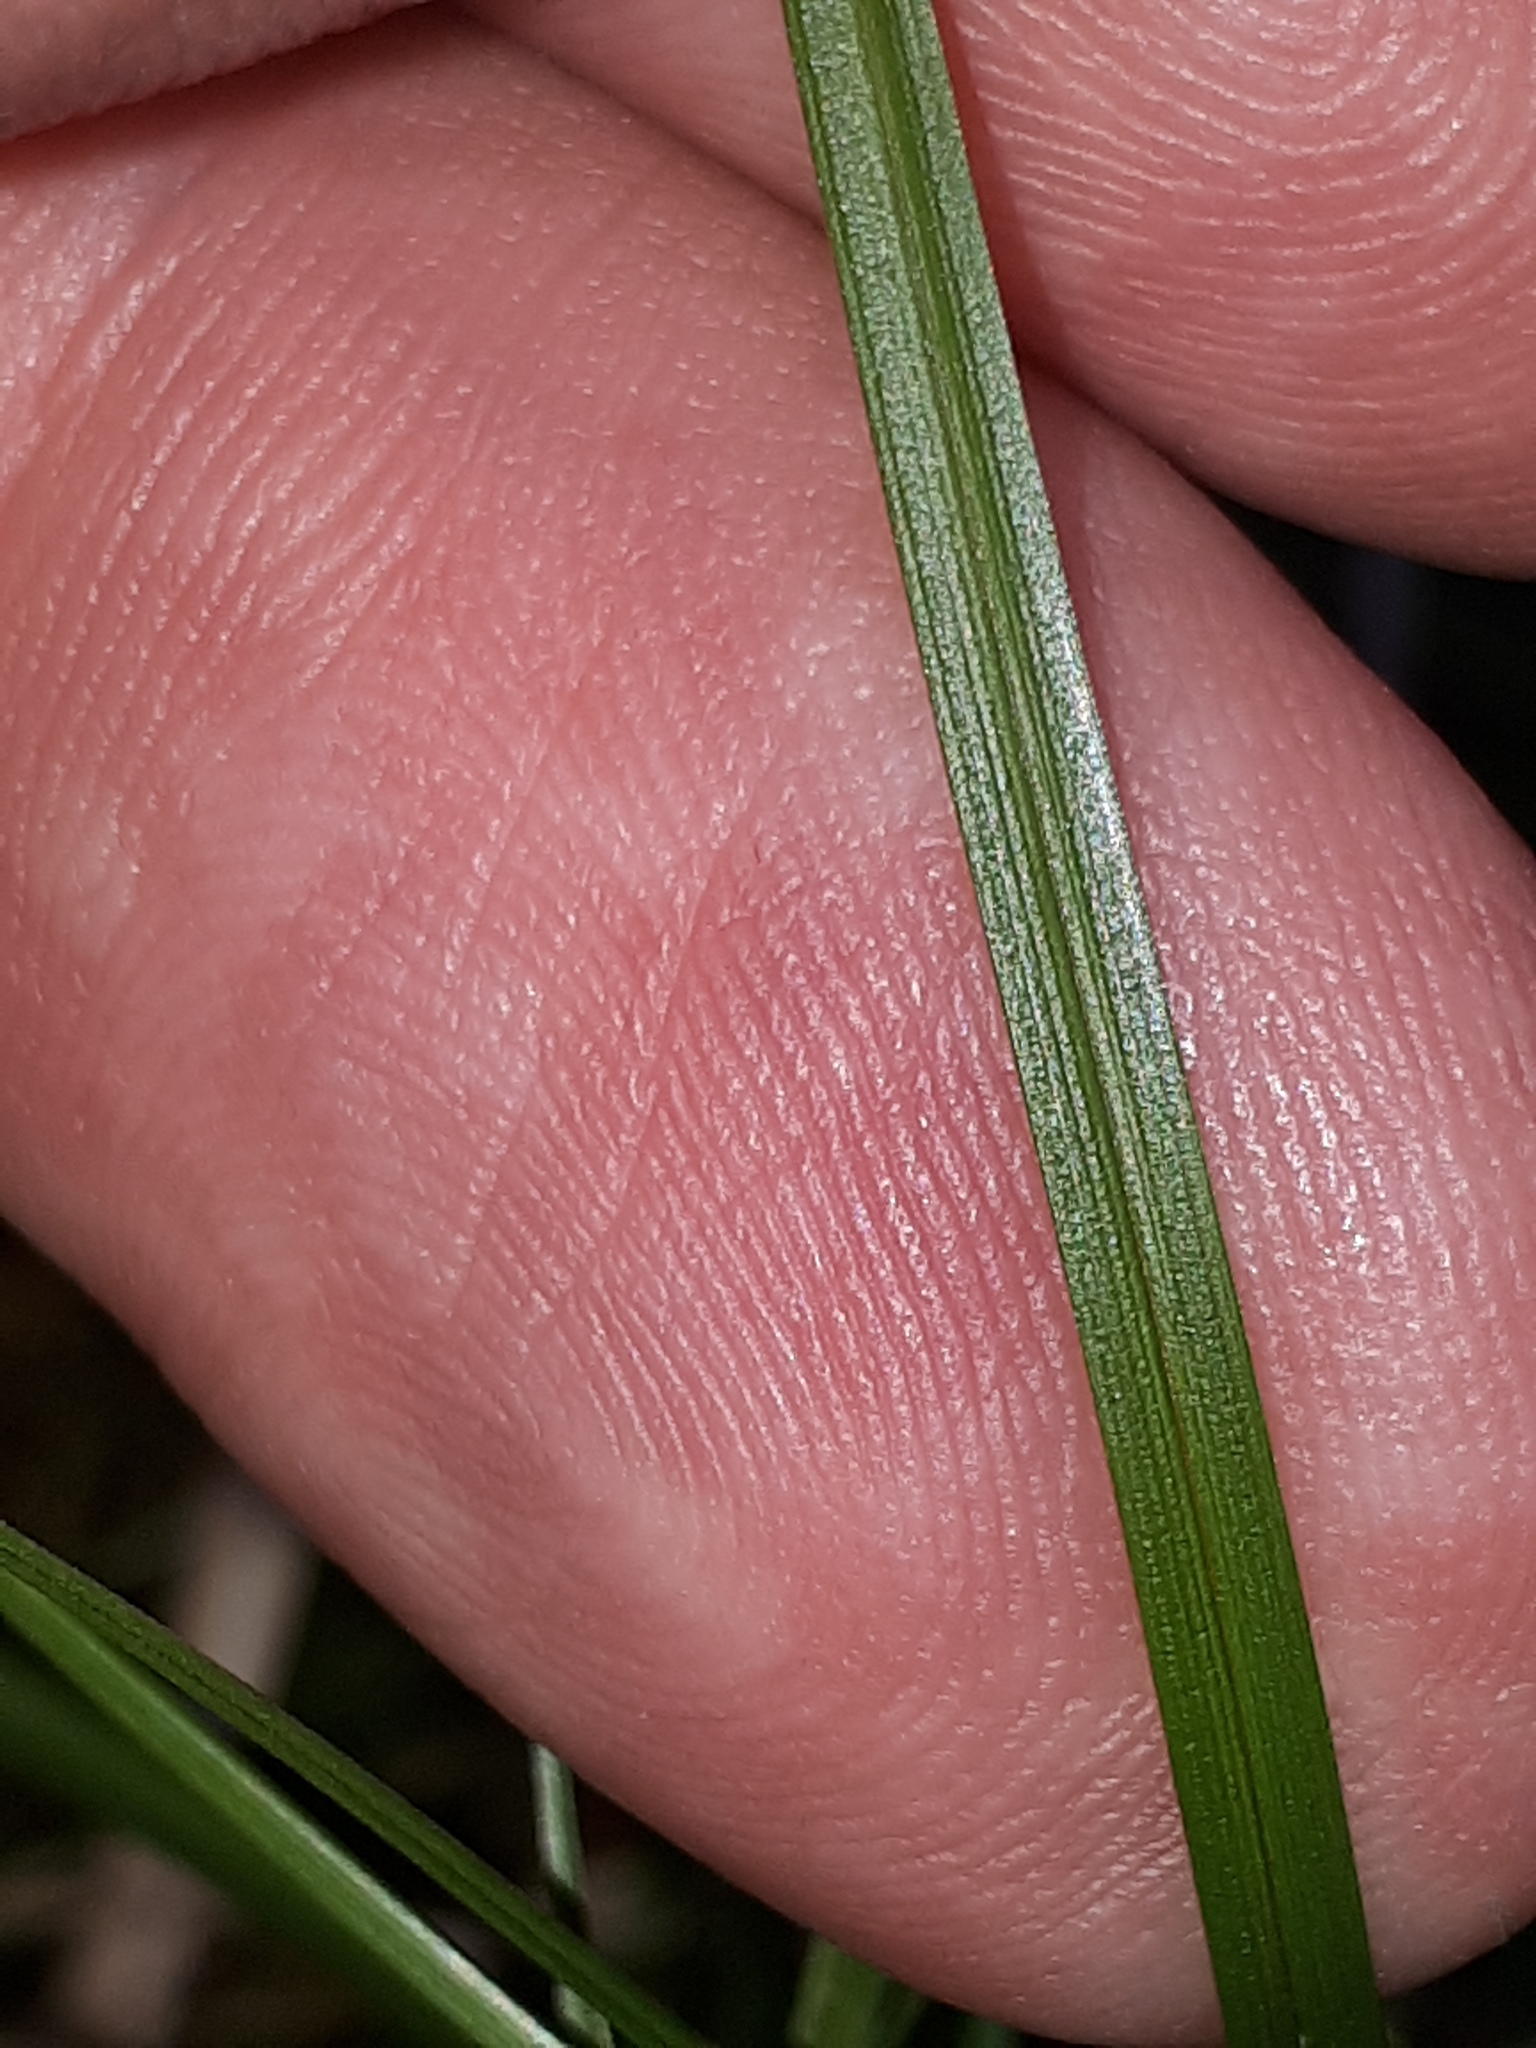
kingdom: Plantae
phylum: Tracheophyta
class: Liliopsida
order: Poales
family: Cyperaceae
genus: Carex
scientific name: Carex pilulifera
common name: Pill sedge
